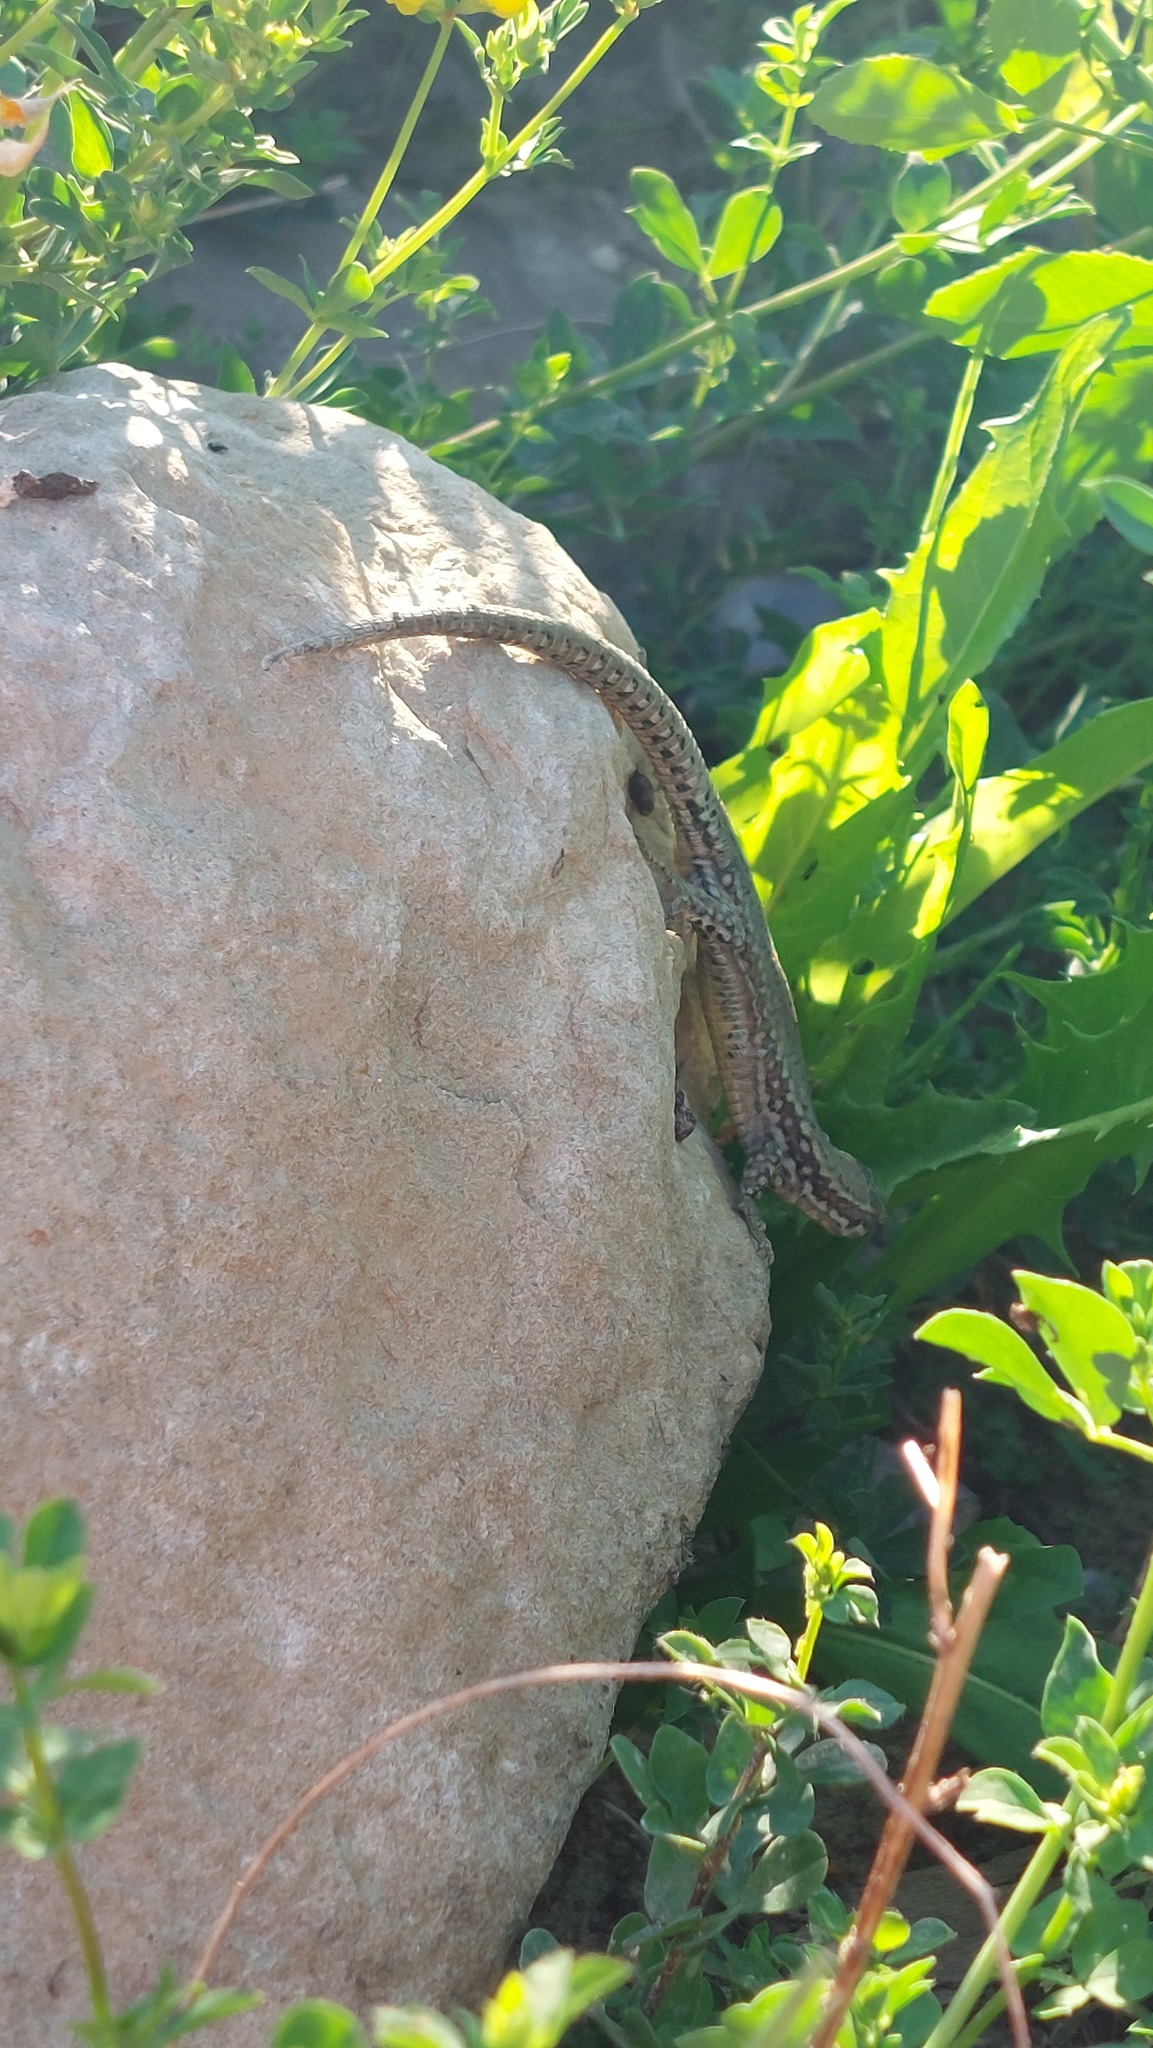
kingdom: Animalia
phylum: Chordata
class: Squamata
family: Lacertidae
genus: Podarcis
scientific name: Podarcis muralis
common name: Common wall lizard
